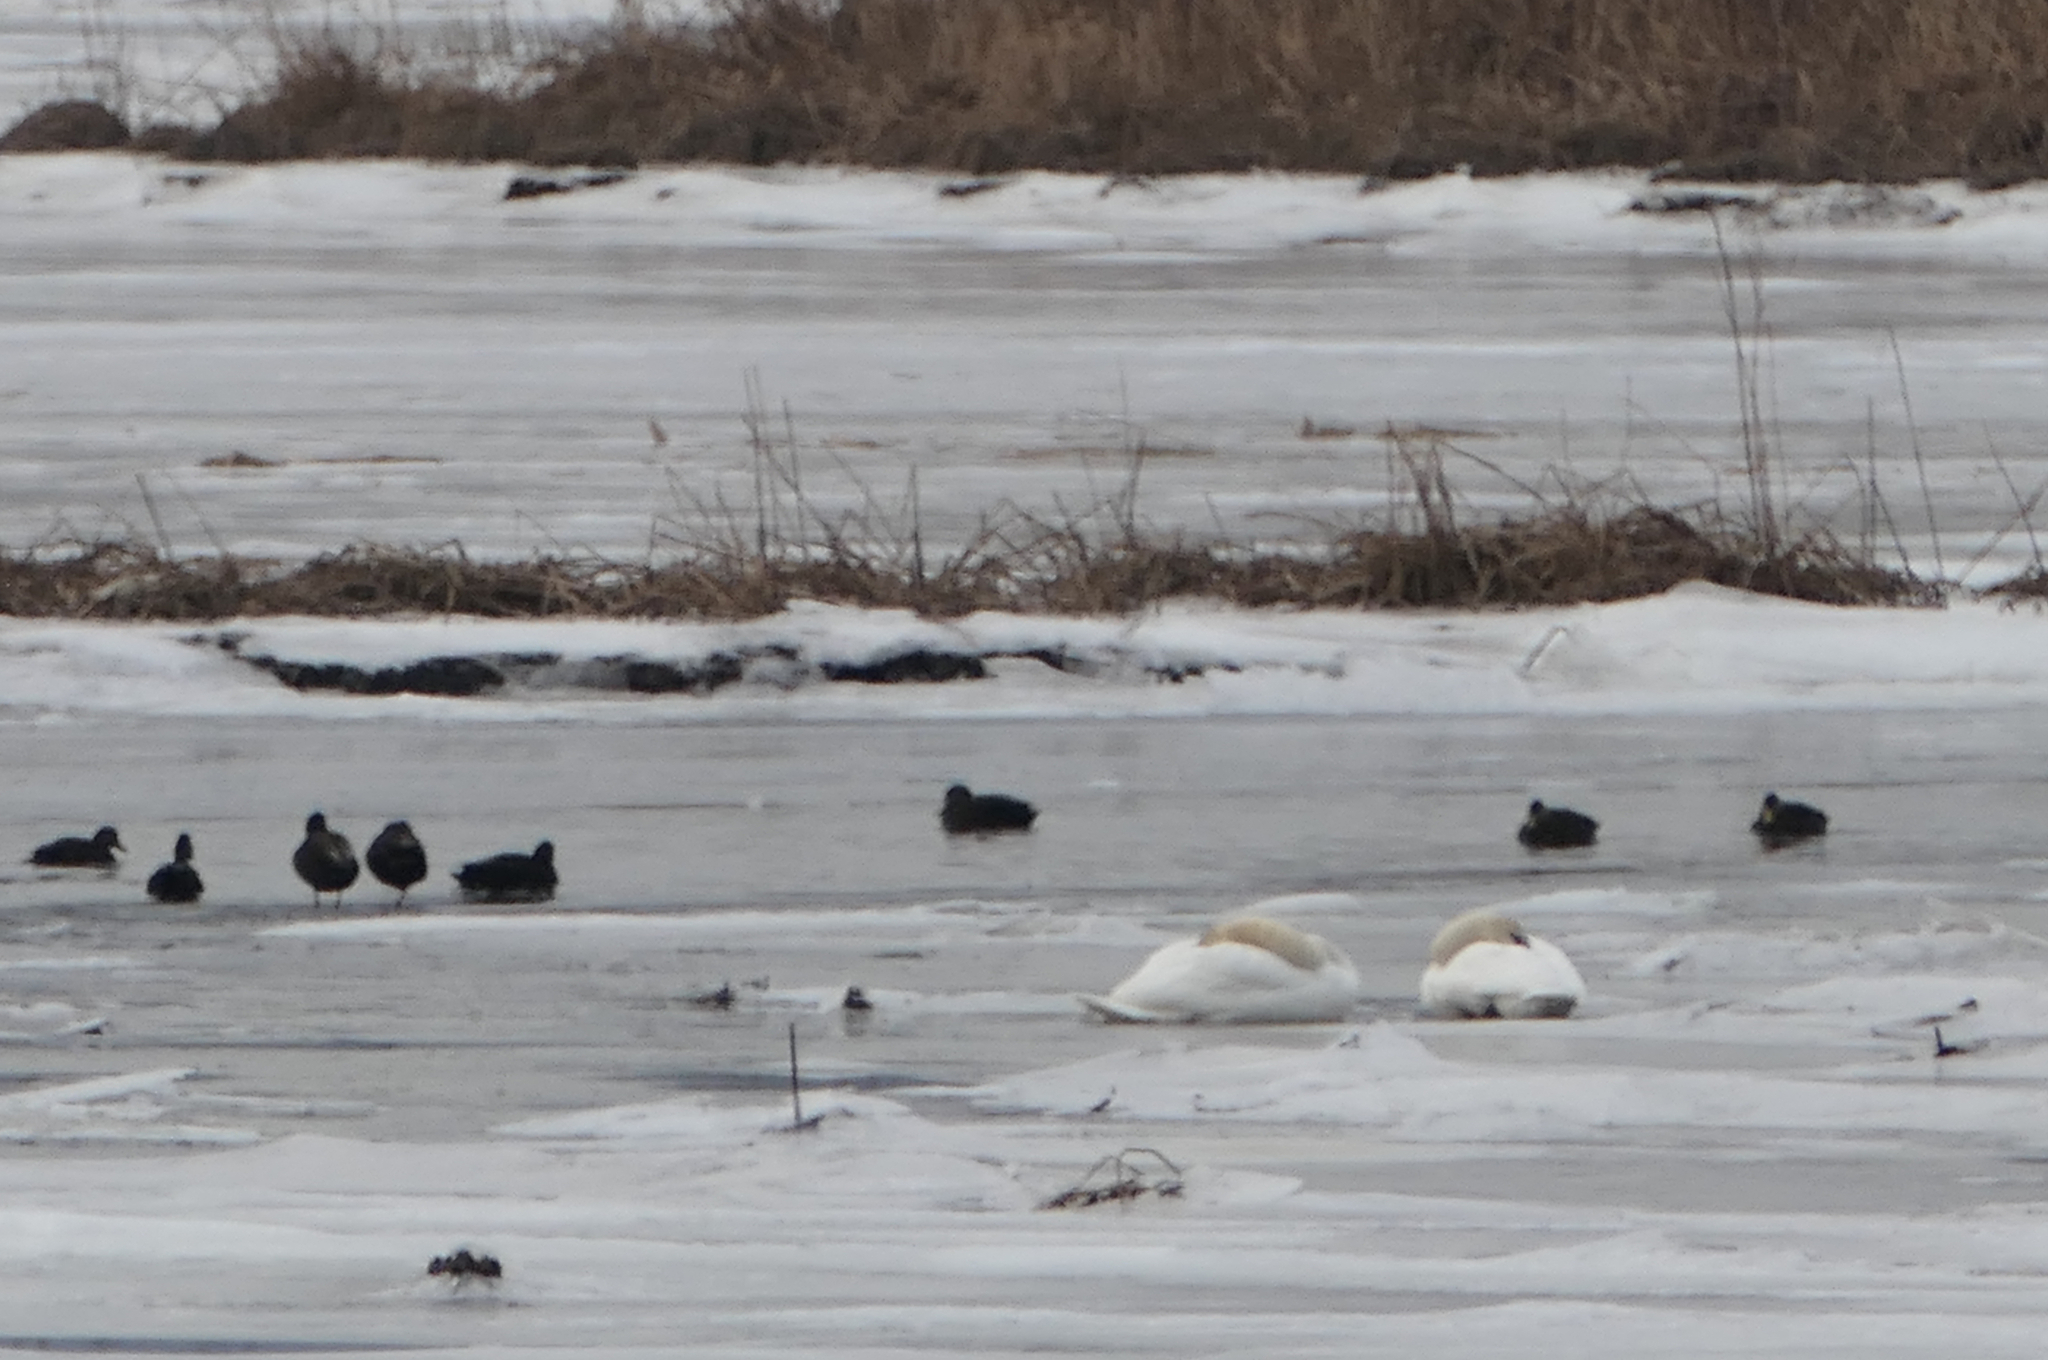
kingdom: Animalia
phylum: Chordata
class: Aves
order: Anseriformes
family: Anatidae
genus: Anas
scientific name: Anas rubripes
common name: American black duck
